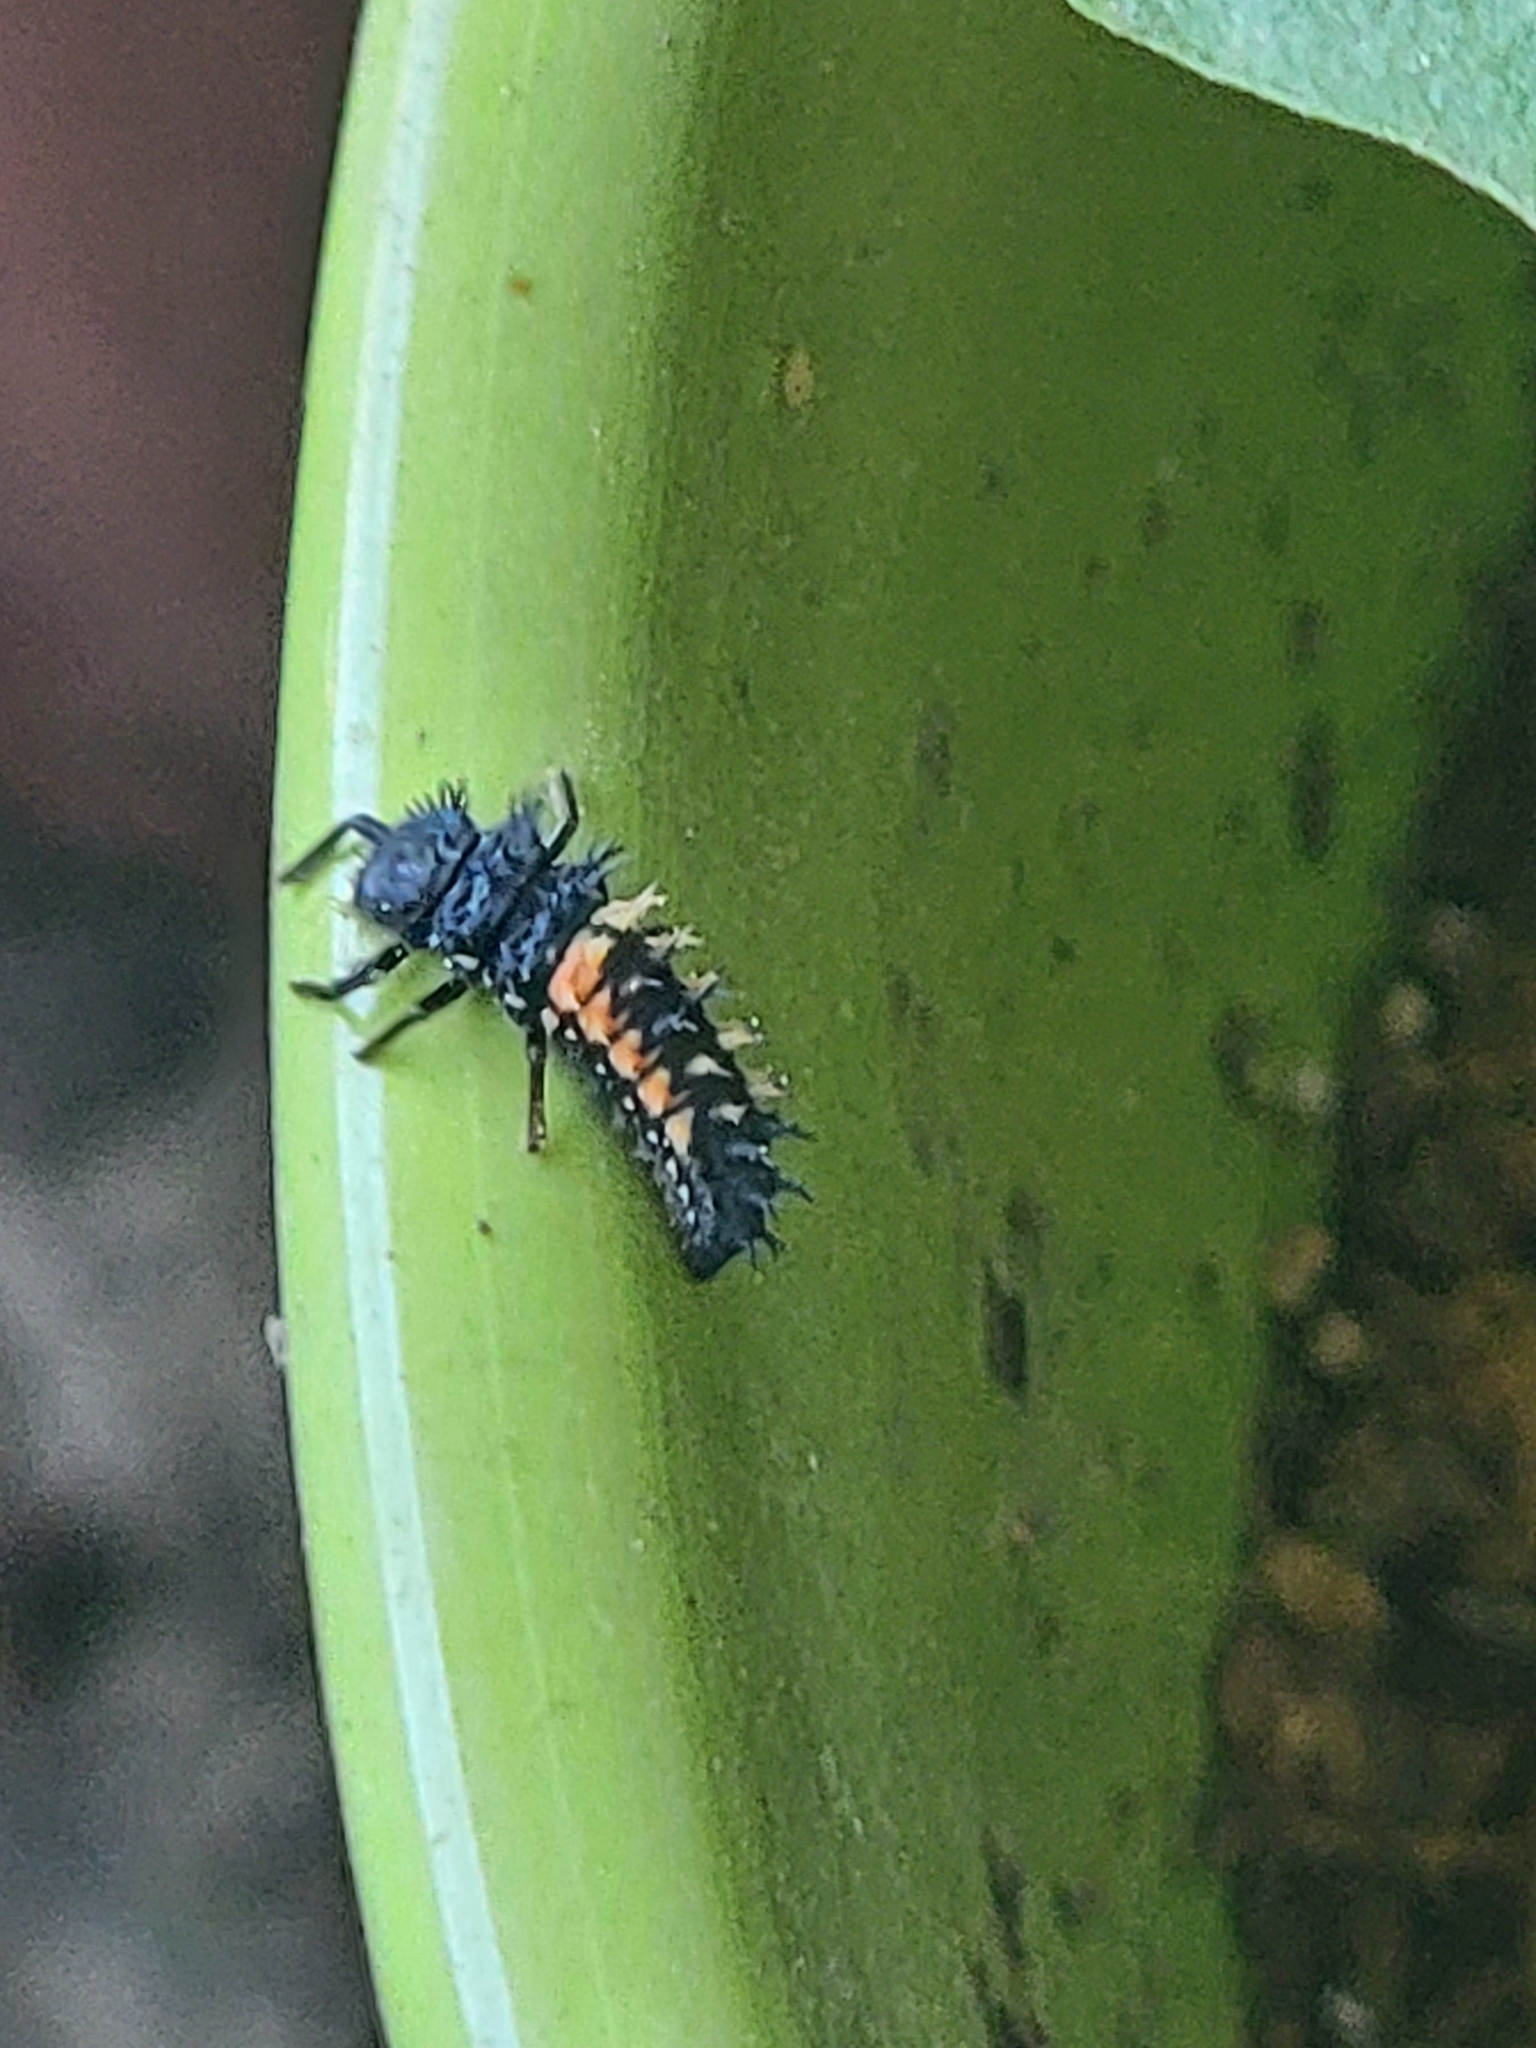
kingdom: Animalia
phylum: Arthropoda
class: Insecta
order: Coleoptera
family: Coccinellidae
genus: Harmonia
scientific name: Harmonia axyridis
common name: Harlequin ladybird
